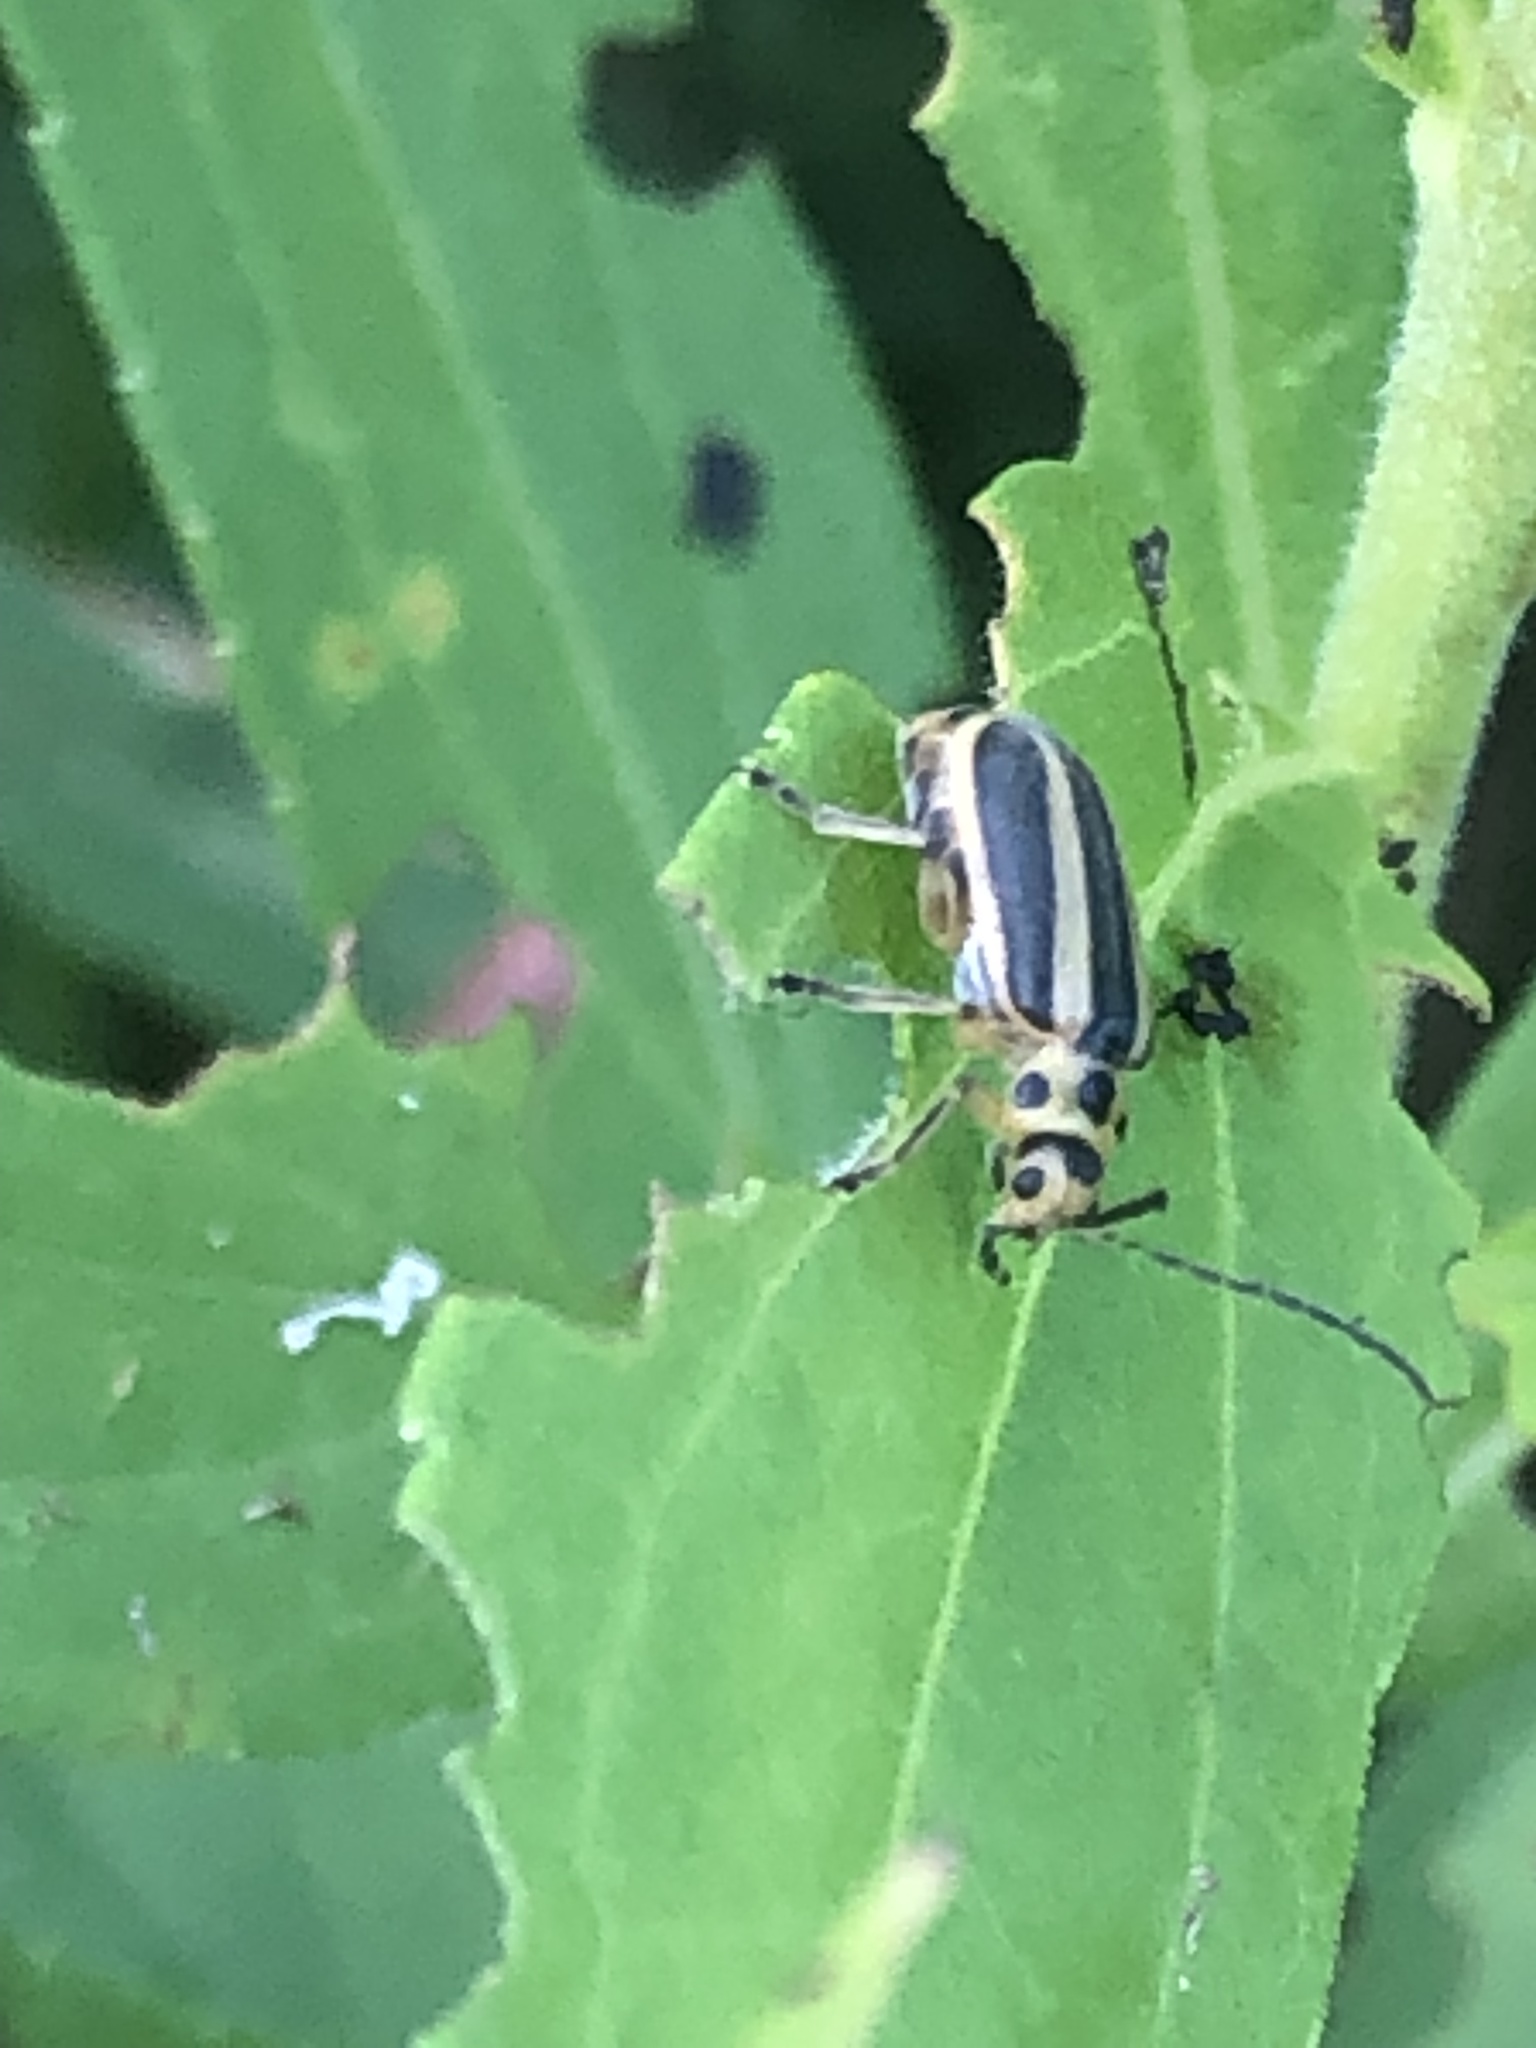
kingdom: Animalia
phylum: Arthropoda
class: Insecta
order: Coleoptera
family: Chrysomelidae
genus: Trirhabda
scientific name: Trirhabda canadensis
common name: Goldenrod leaf beetle
